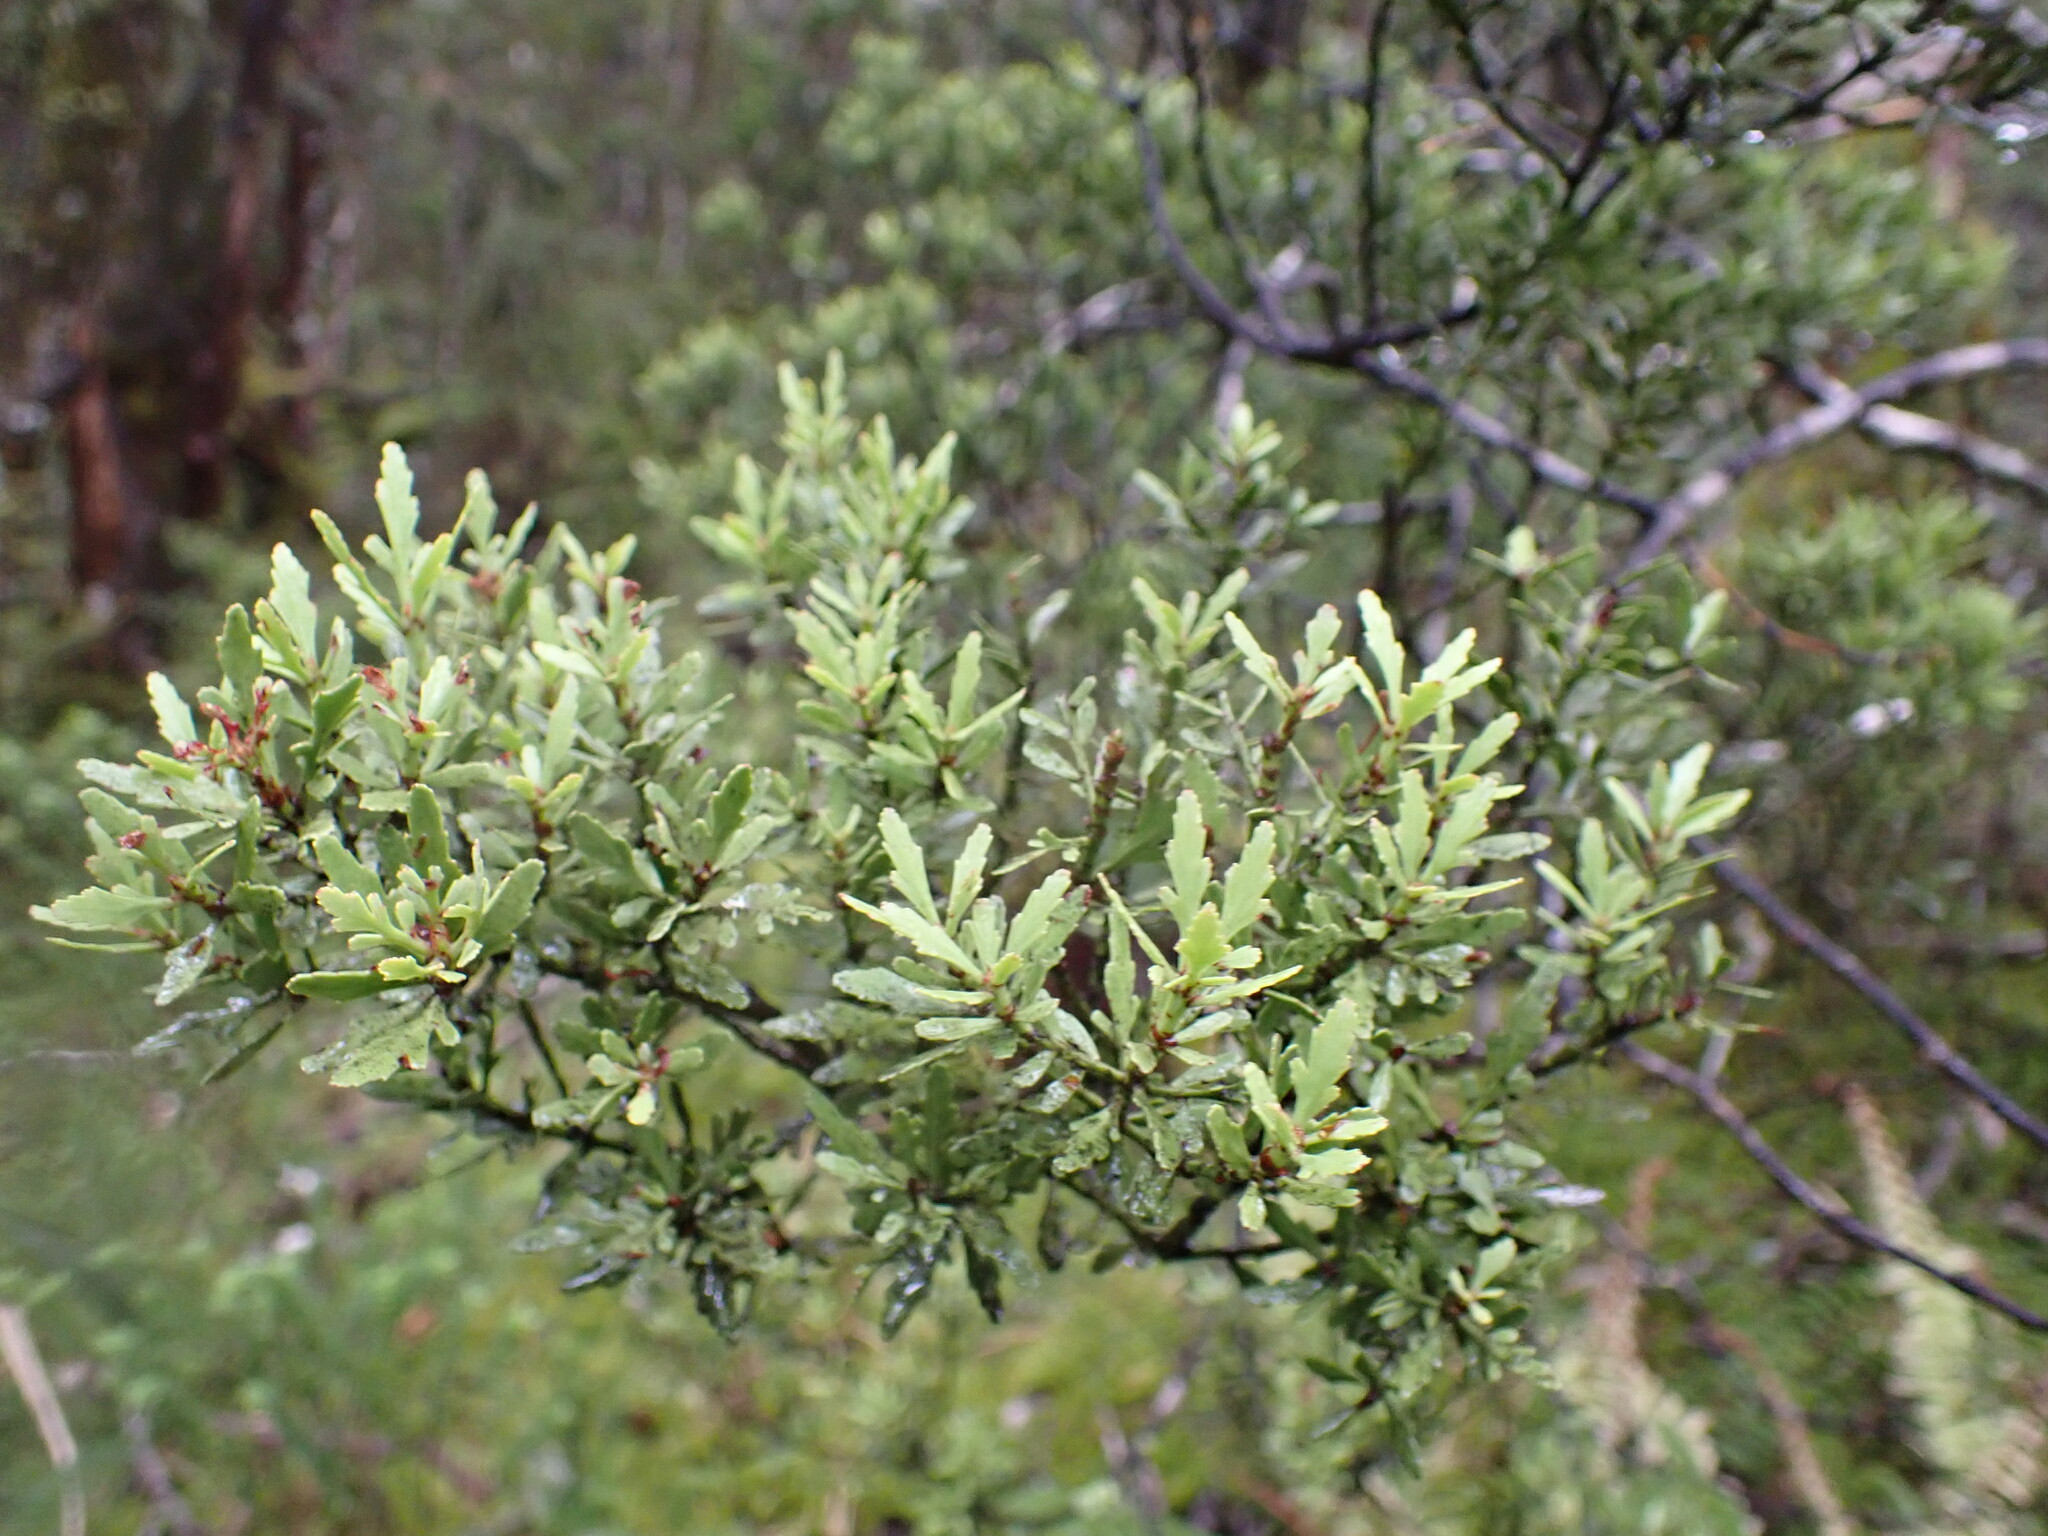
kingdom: Plantae
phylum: Tracheophyta
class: Pinopsida
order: Pinales
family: Phyllocladaceae
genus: Phyllocladus
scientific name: Phyllocladus trichomanoides
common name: Celery pine
